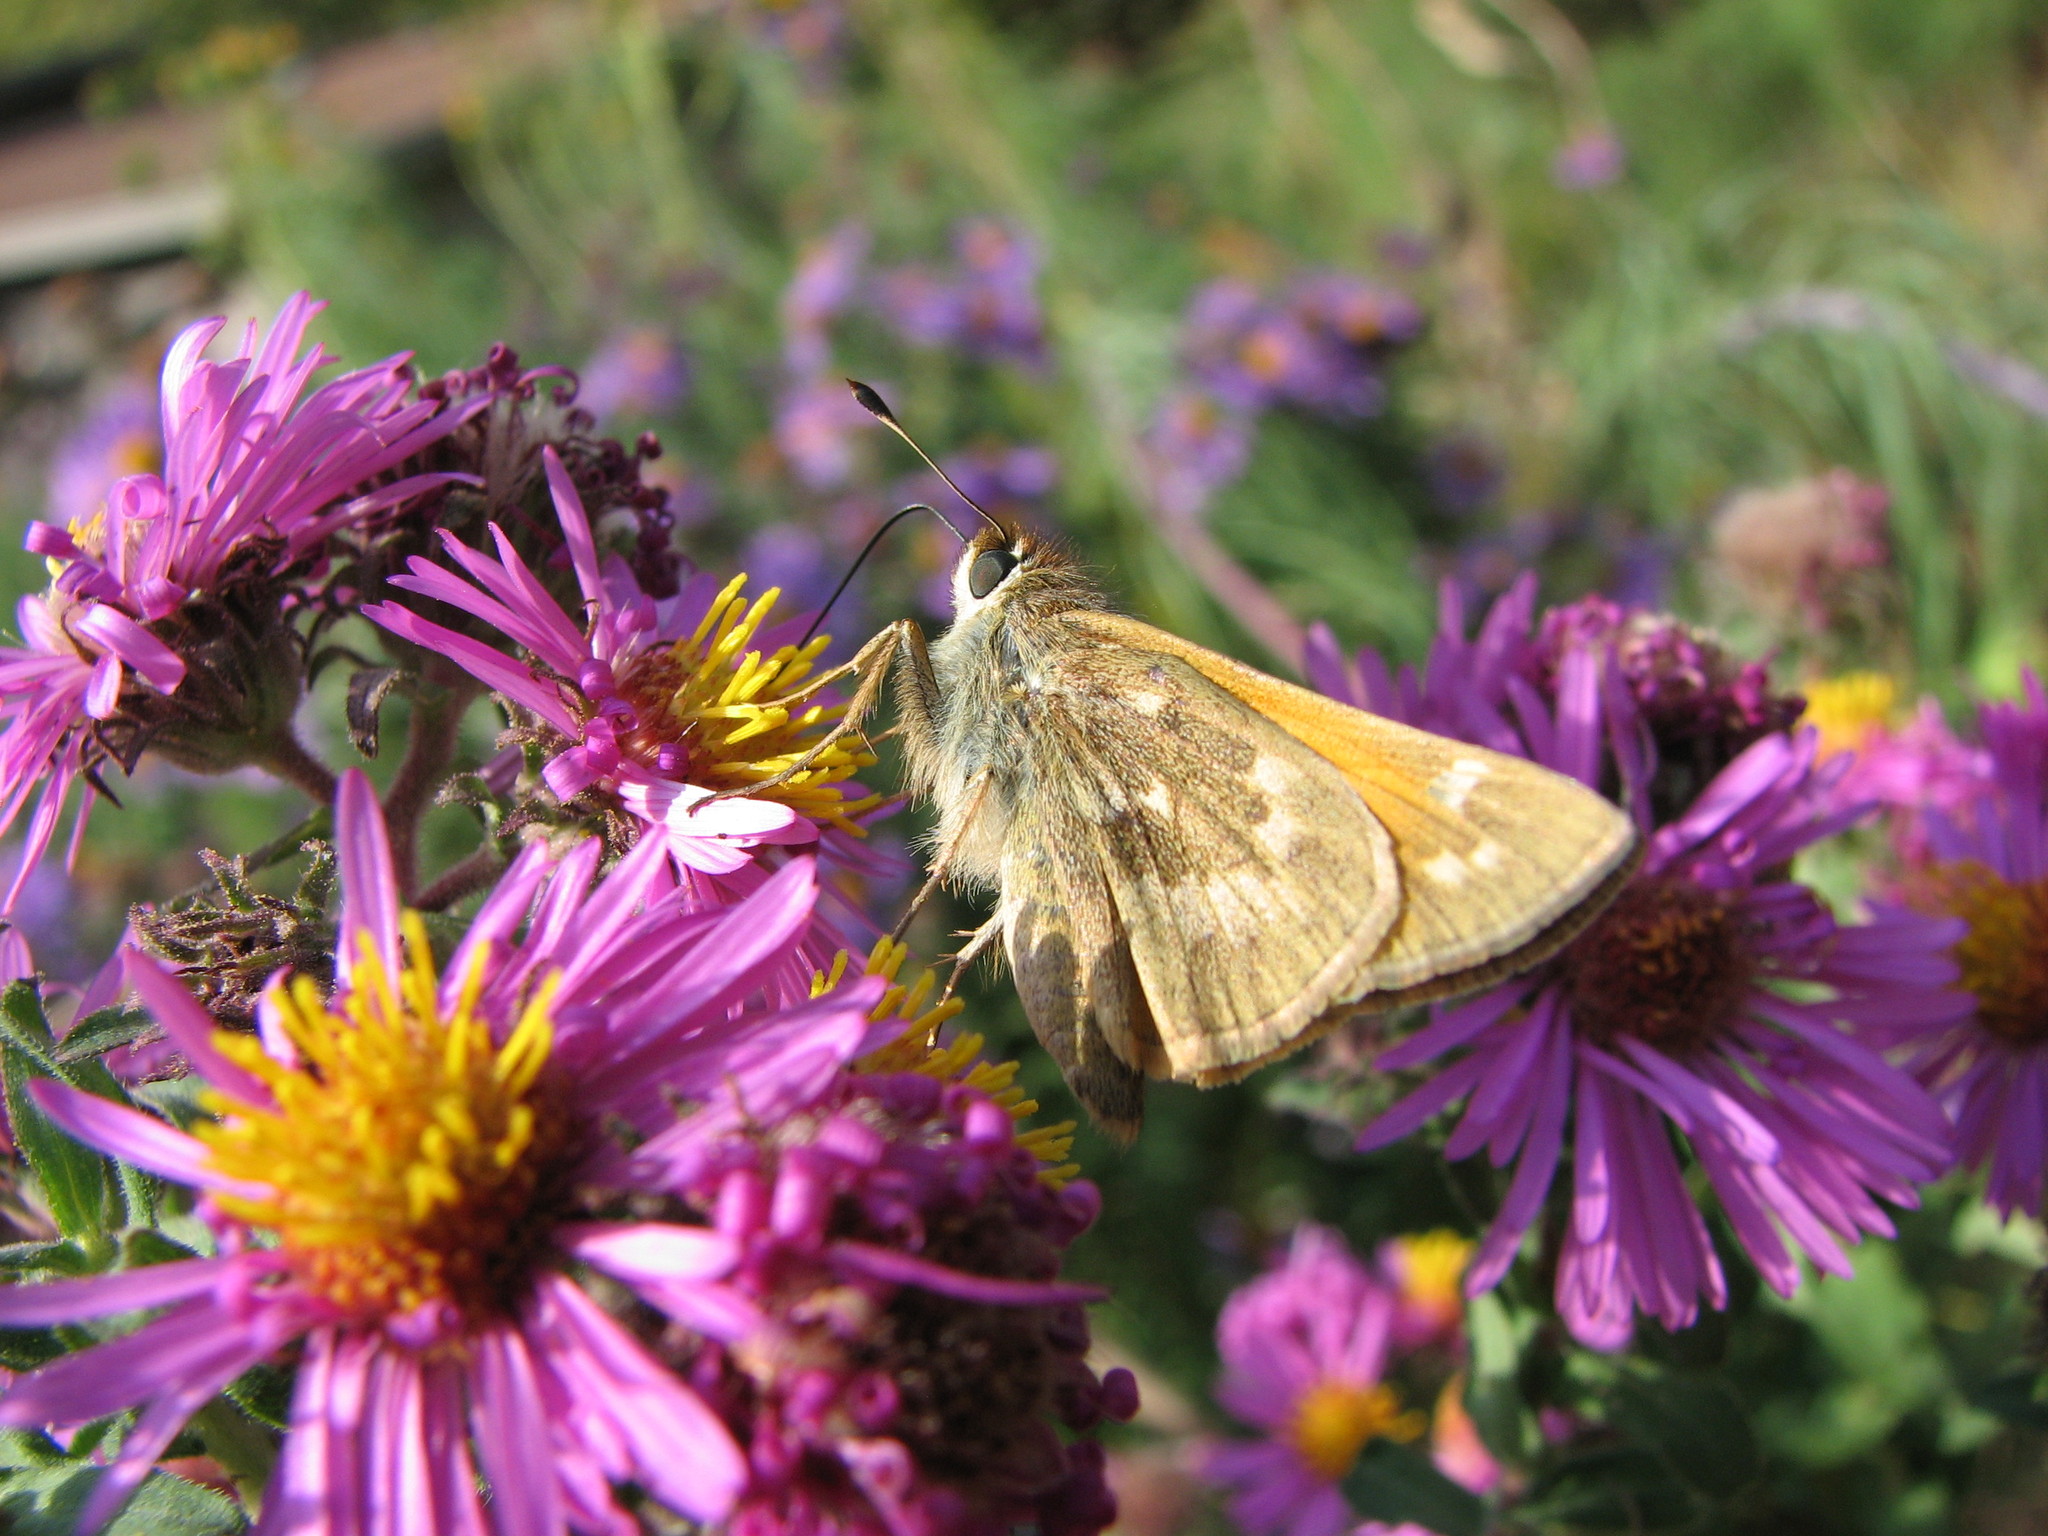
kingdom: Animalia
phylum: Arthropoda
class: Insecta
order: Lepidoptera
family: Hesperiidae
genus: Atalopedes
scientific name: Atalopedes
